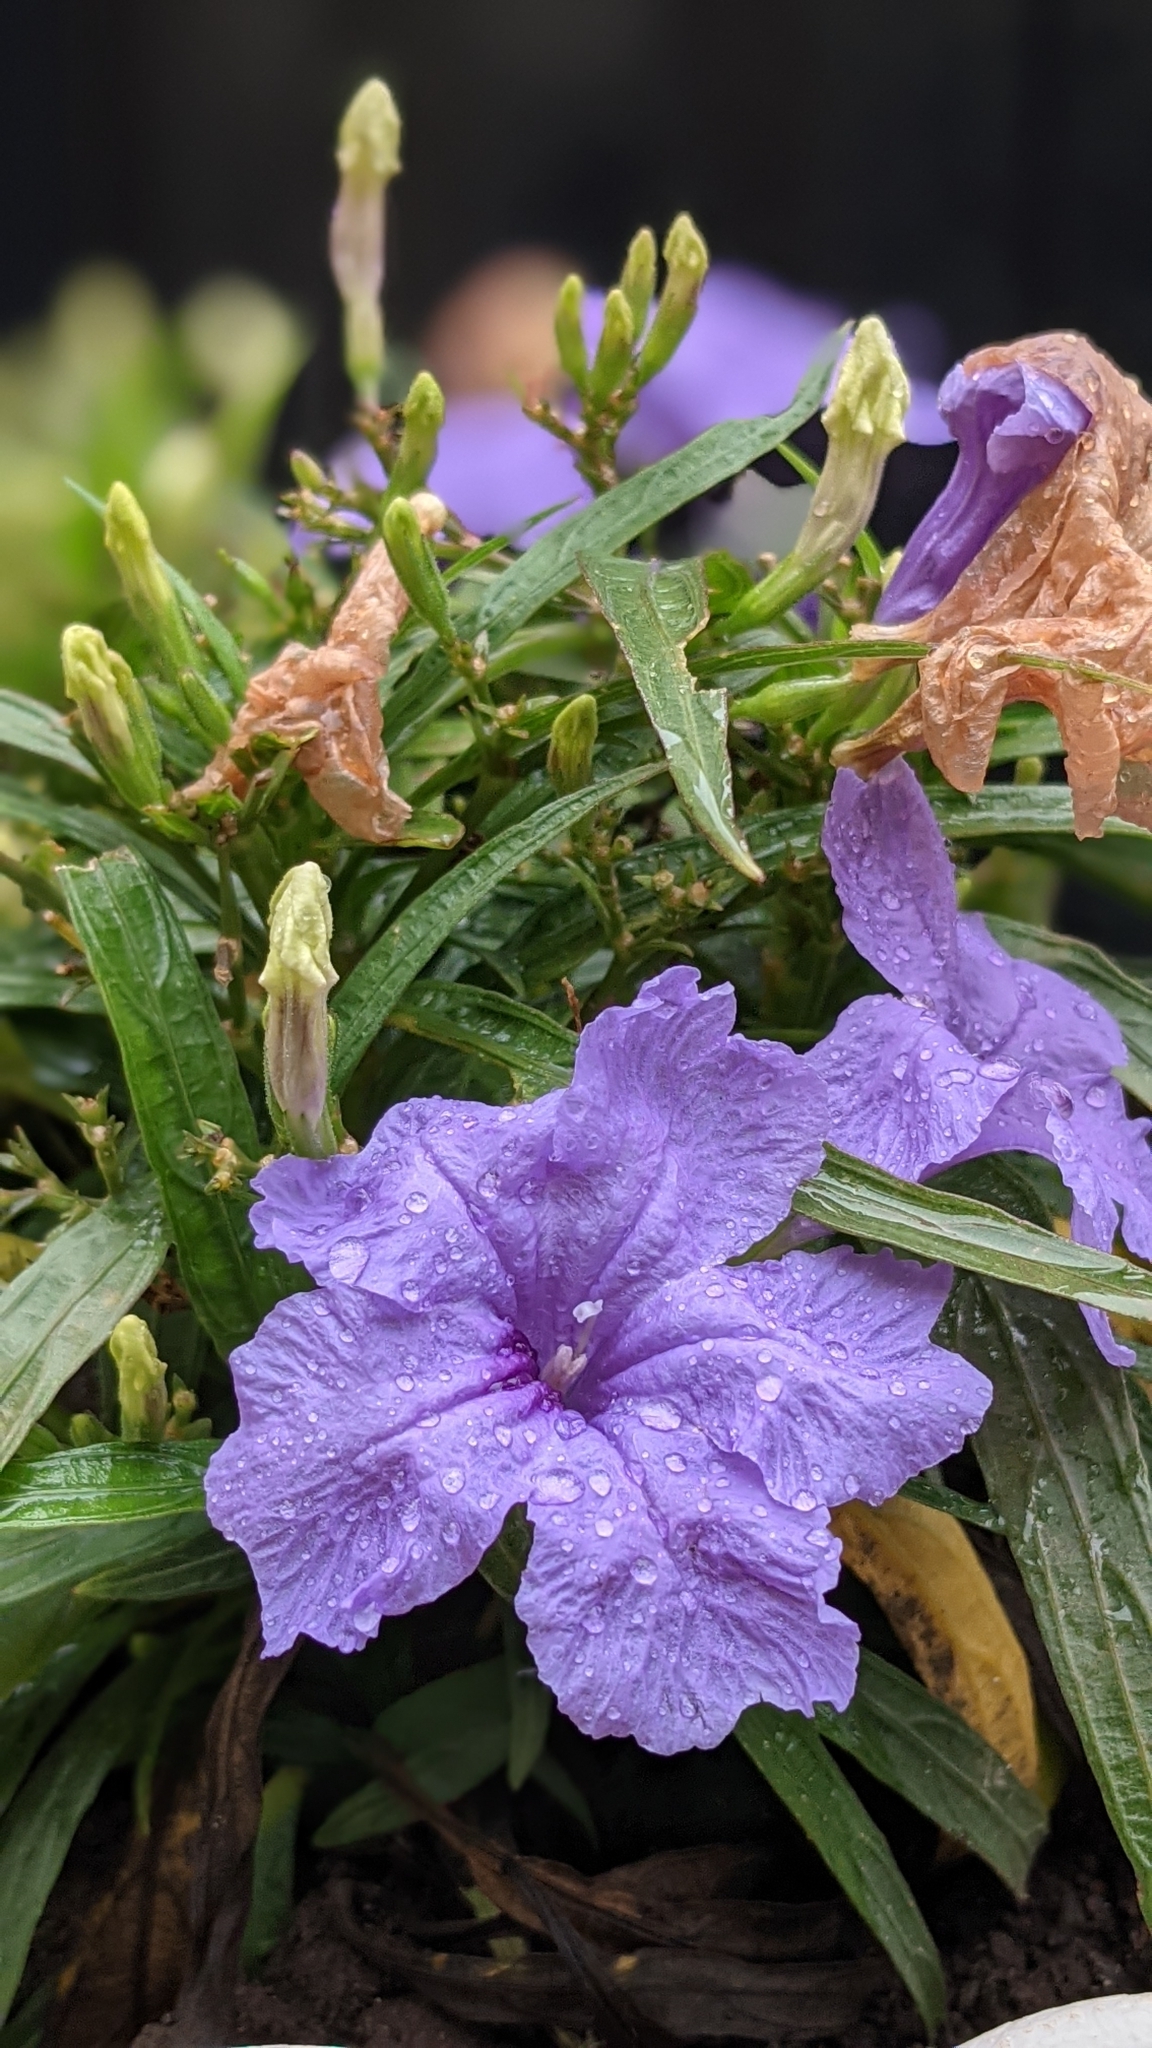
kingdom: Plantae
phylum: Tracheophyta
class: Magnoliopsida
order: Lamiales
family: Acanthaceae
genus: Ruellia
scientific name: Ruellia simplex
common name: Softseed wild petunia
